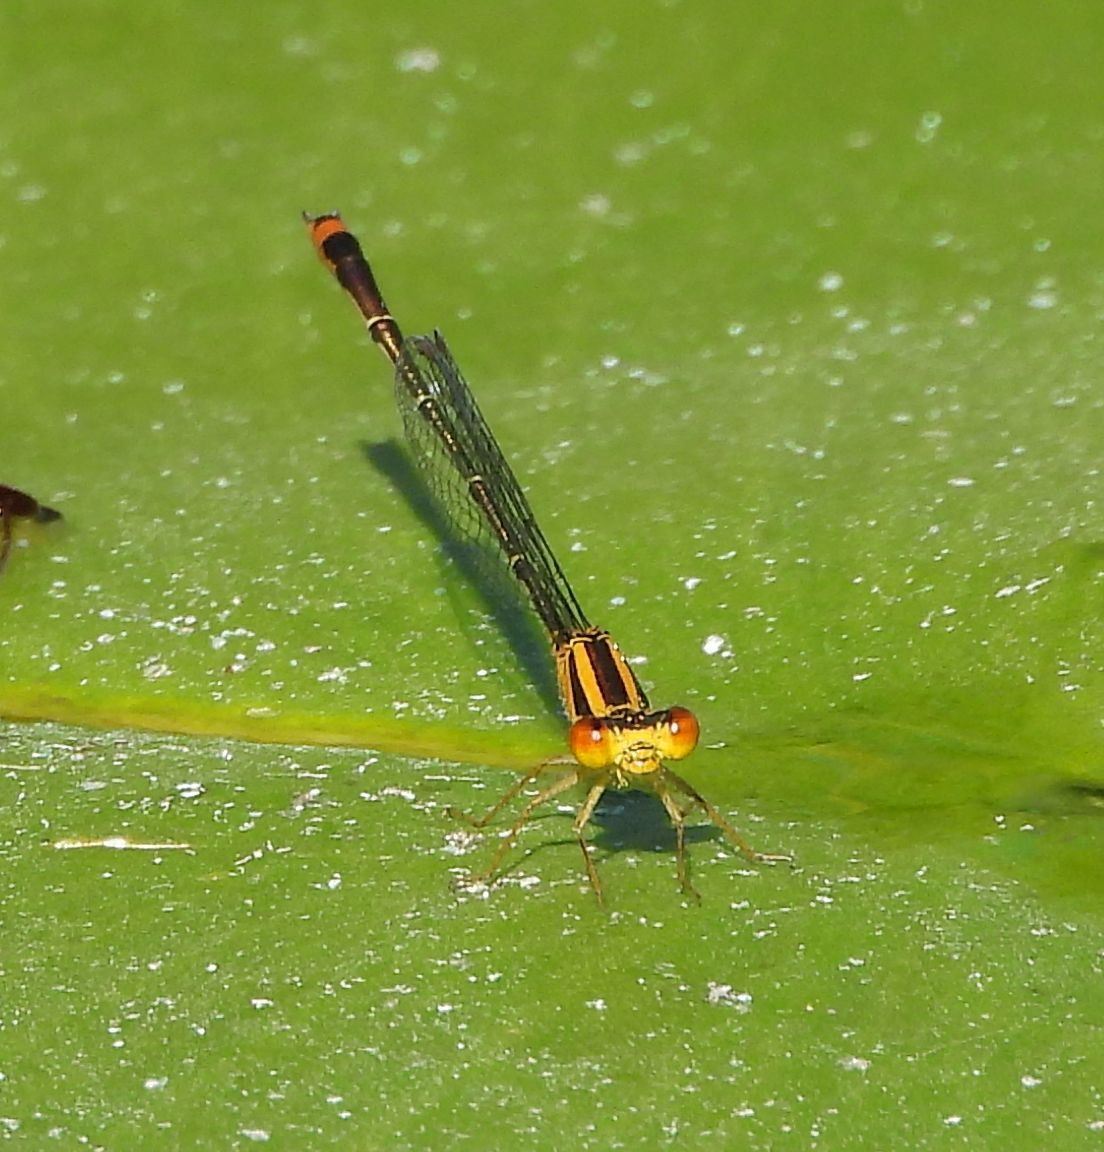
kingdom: Animalia
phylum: Arthropoda
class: Insecta
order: Odonata
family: Coenagrionidae
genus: Enallagma
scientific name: Enallagma signatum
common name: Orange bluet
